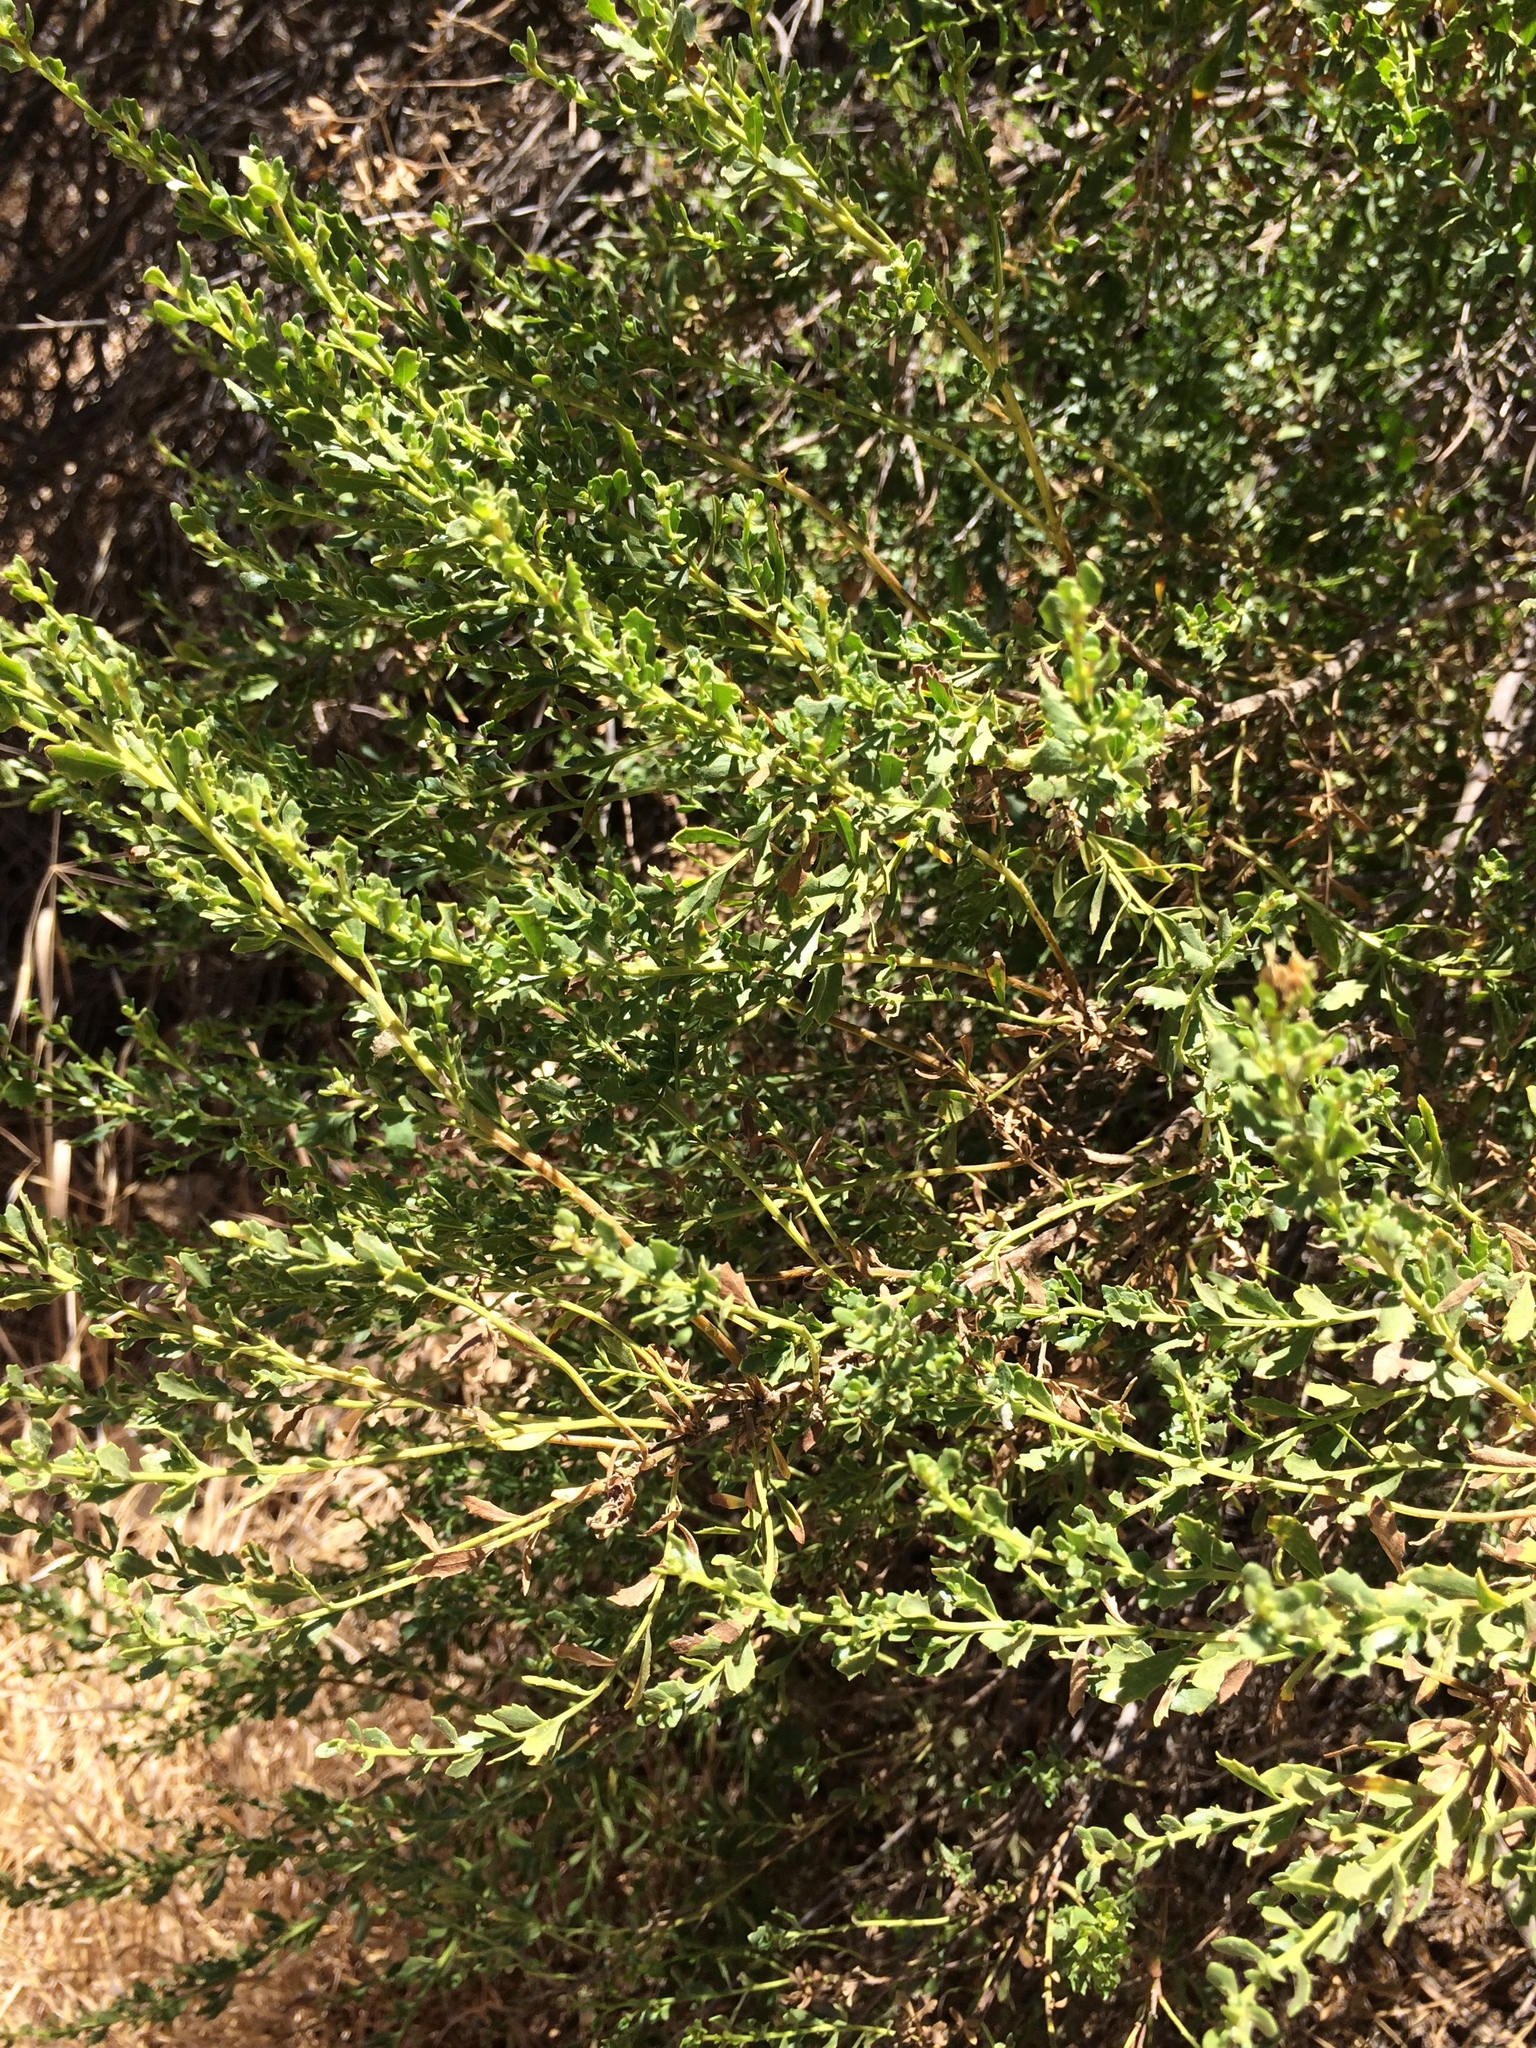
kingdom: Plantae
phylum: Tracheophyta
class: Magnoliopsida
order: Asterales
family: Asteraceae
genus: Baccharis
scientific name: Baccharis pilularis
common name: Coyotebrush
